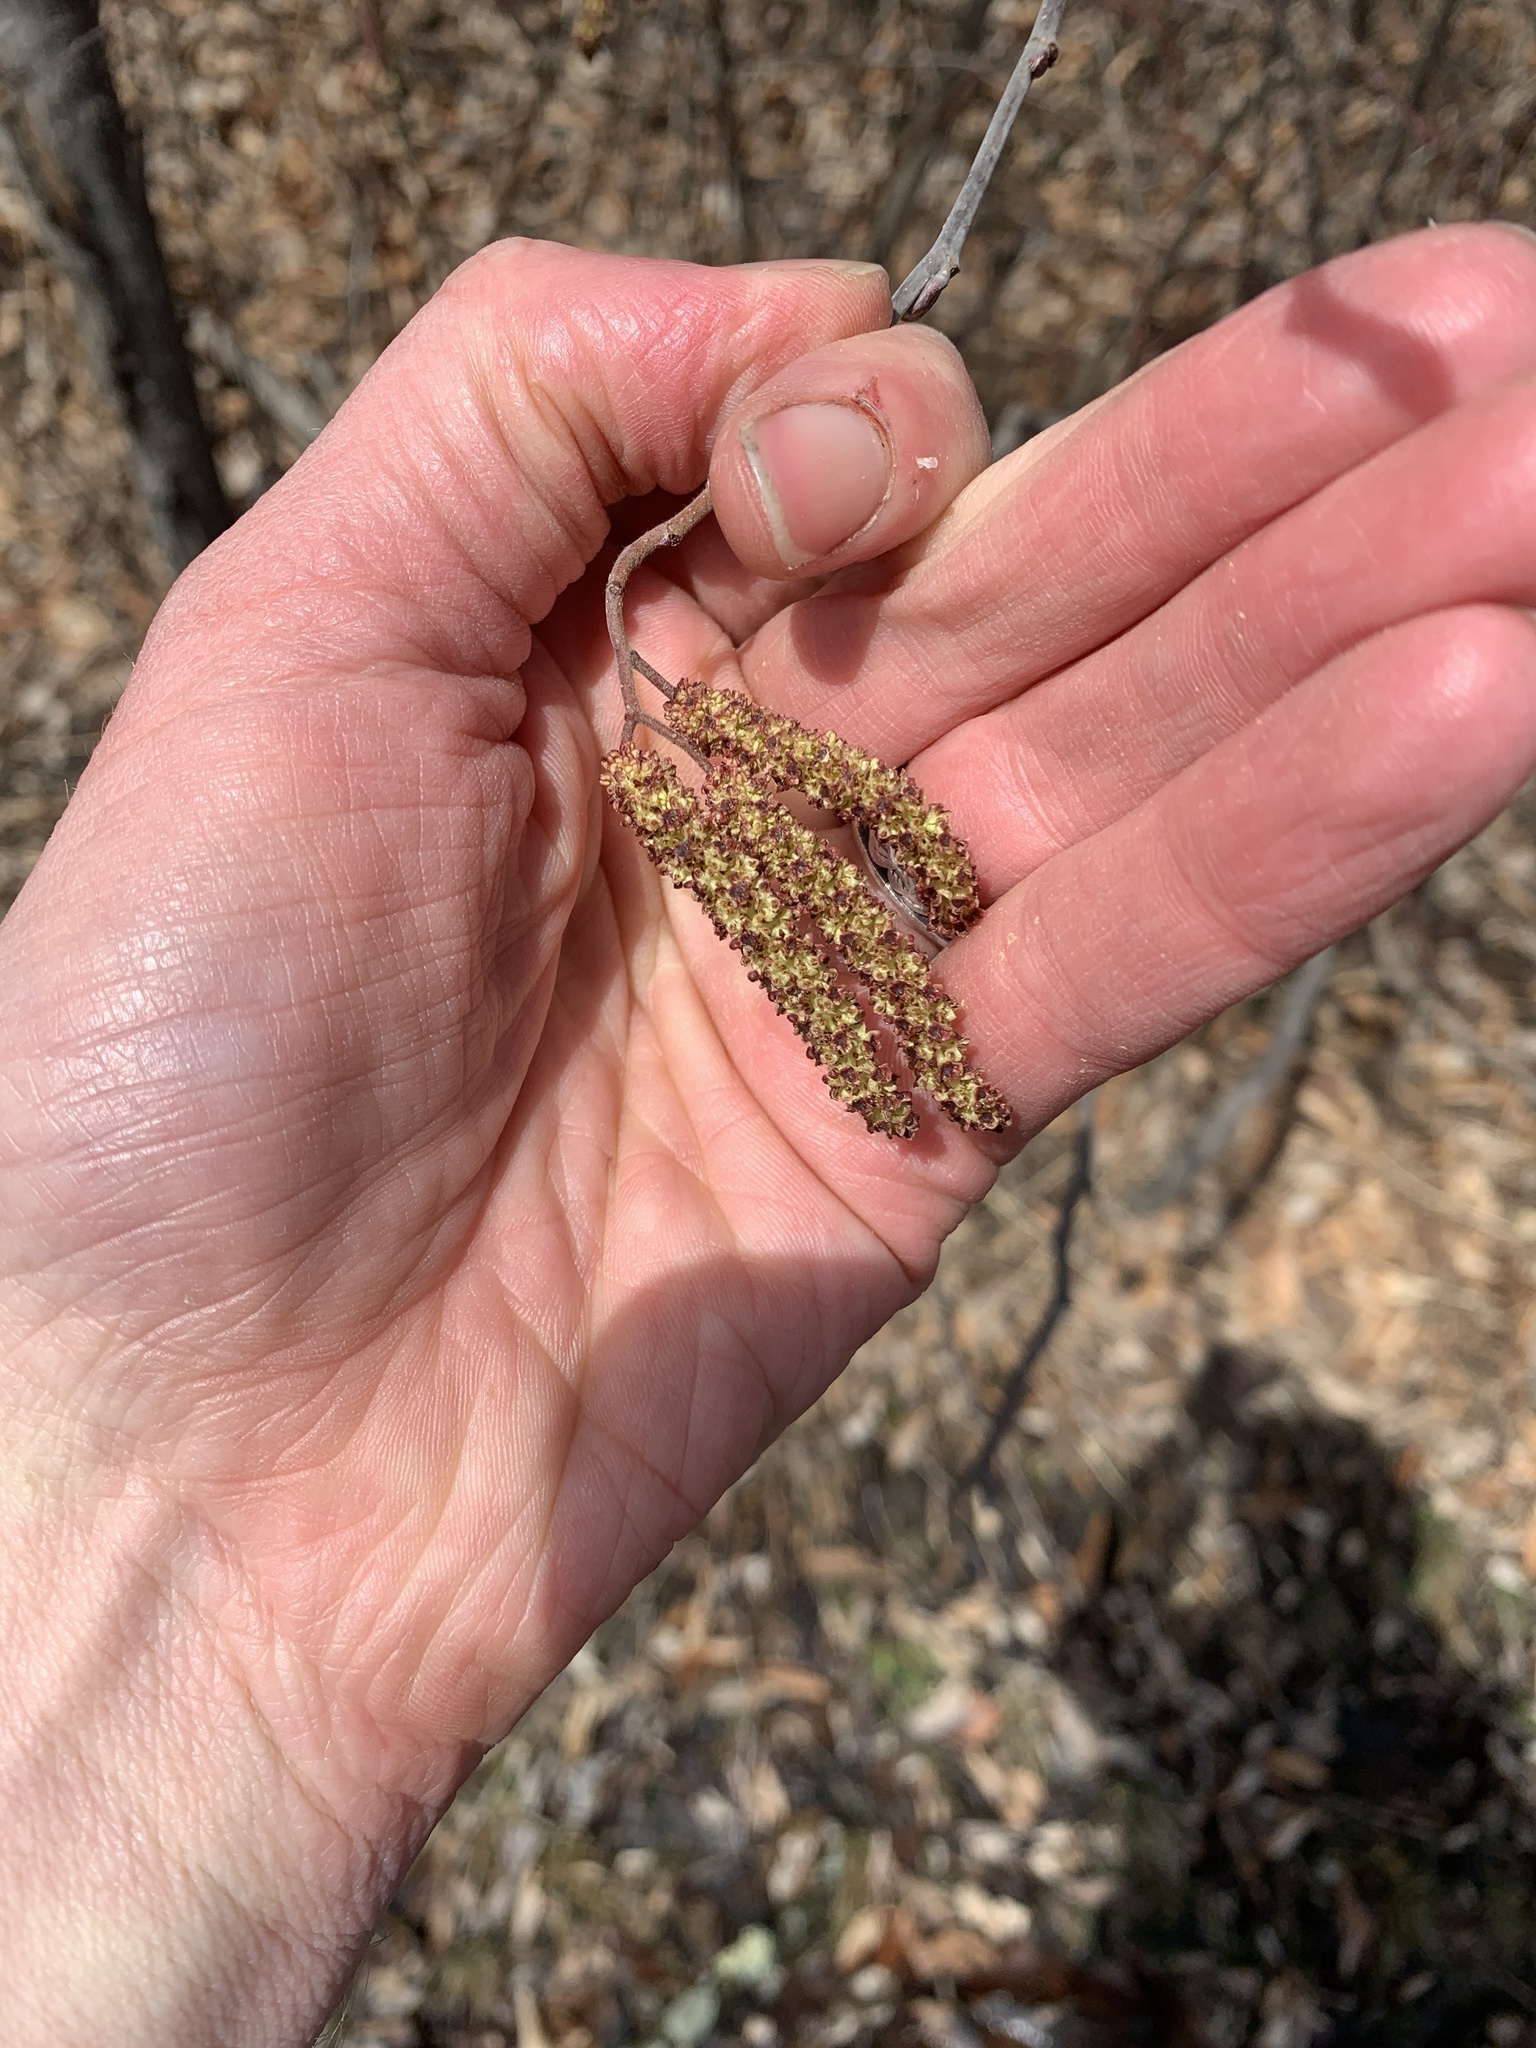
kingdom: Plantae
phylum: Tracheophyta
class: Magnoliopsida
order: Fagales
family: Betulaceae
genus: Alnus
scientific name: Alnus incana
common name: Grey alder
